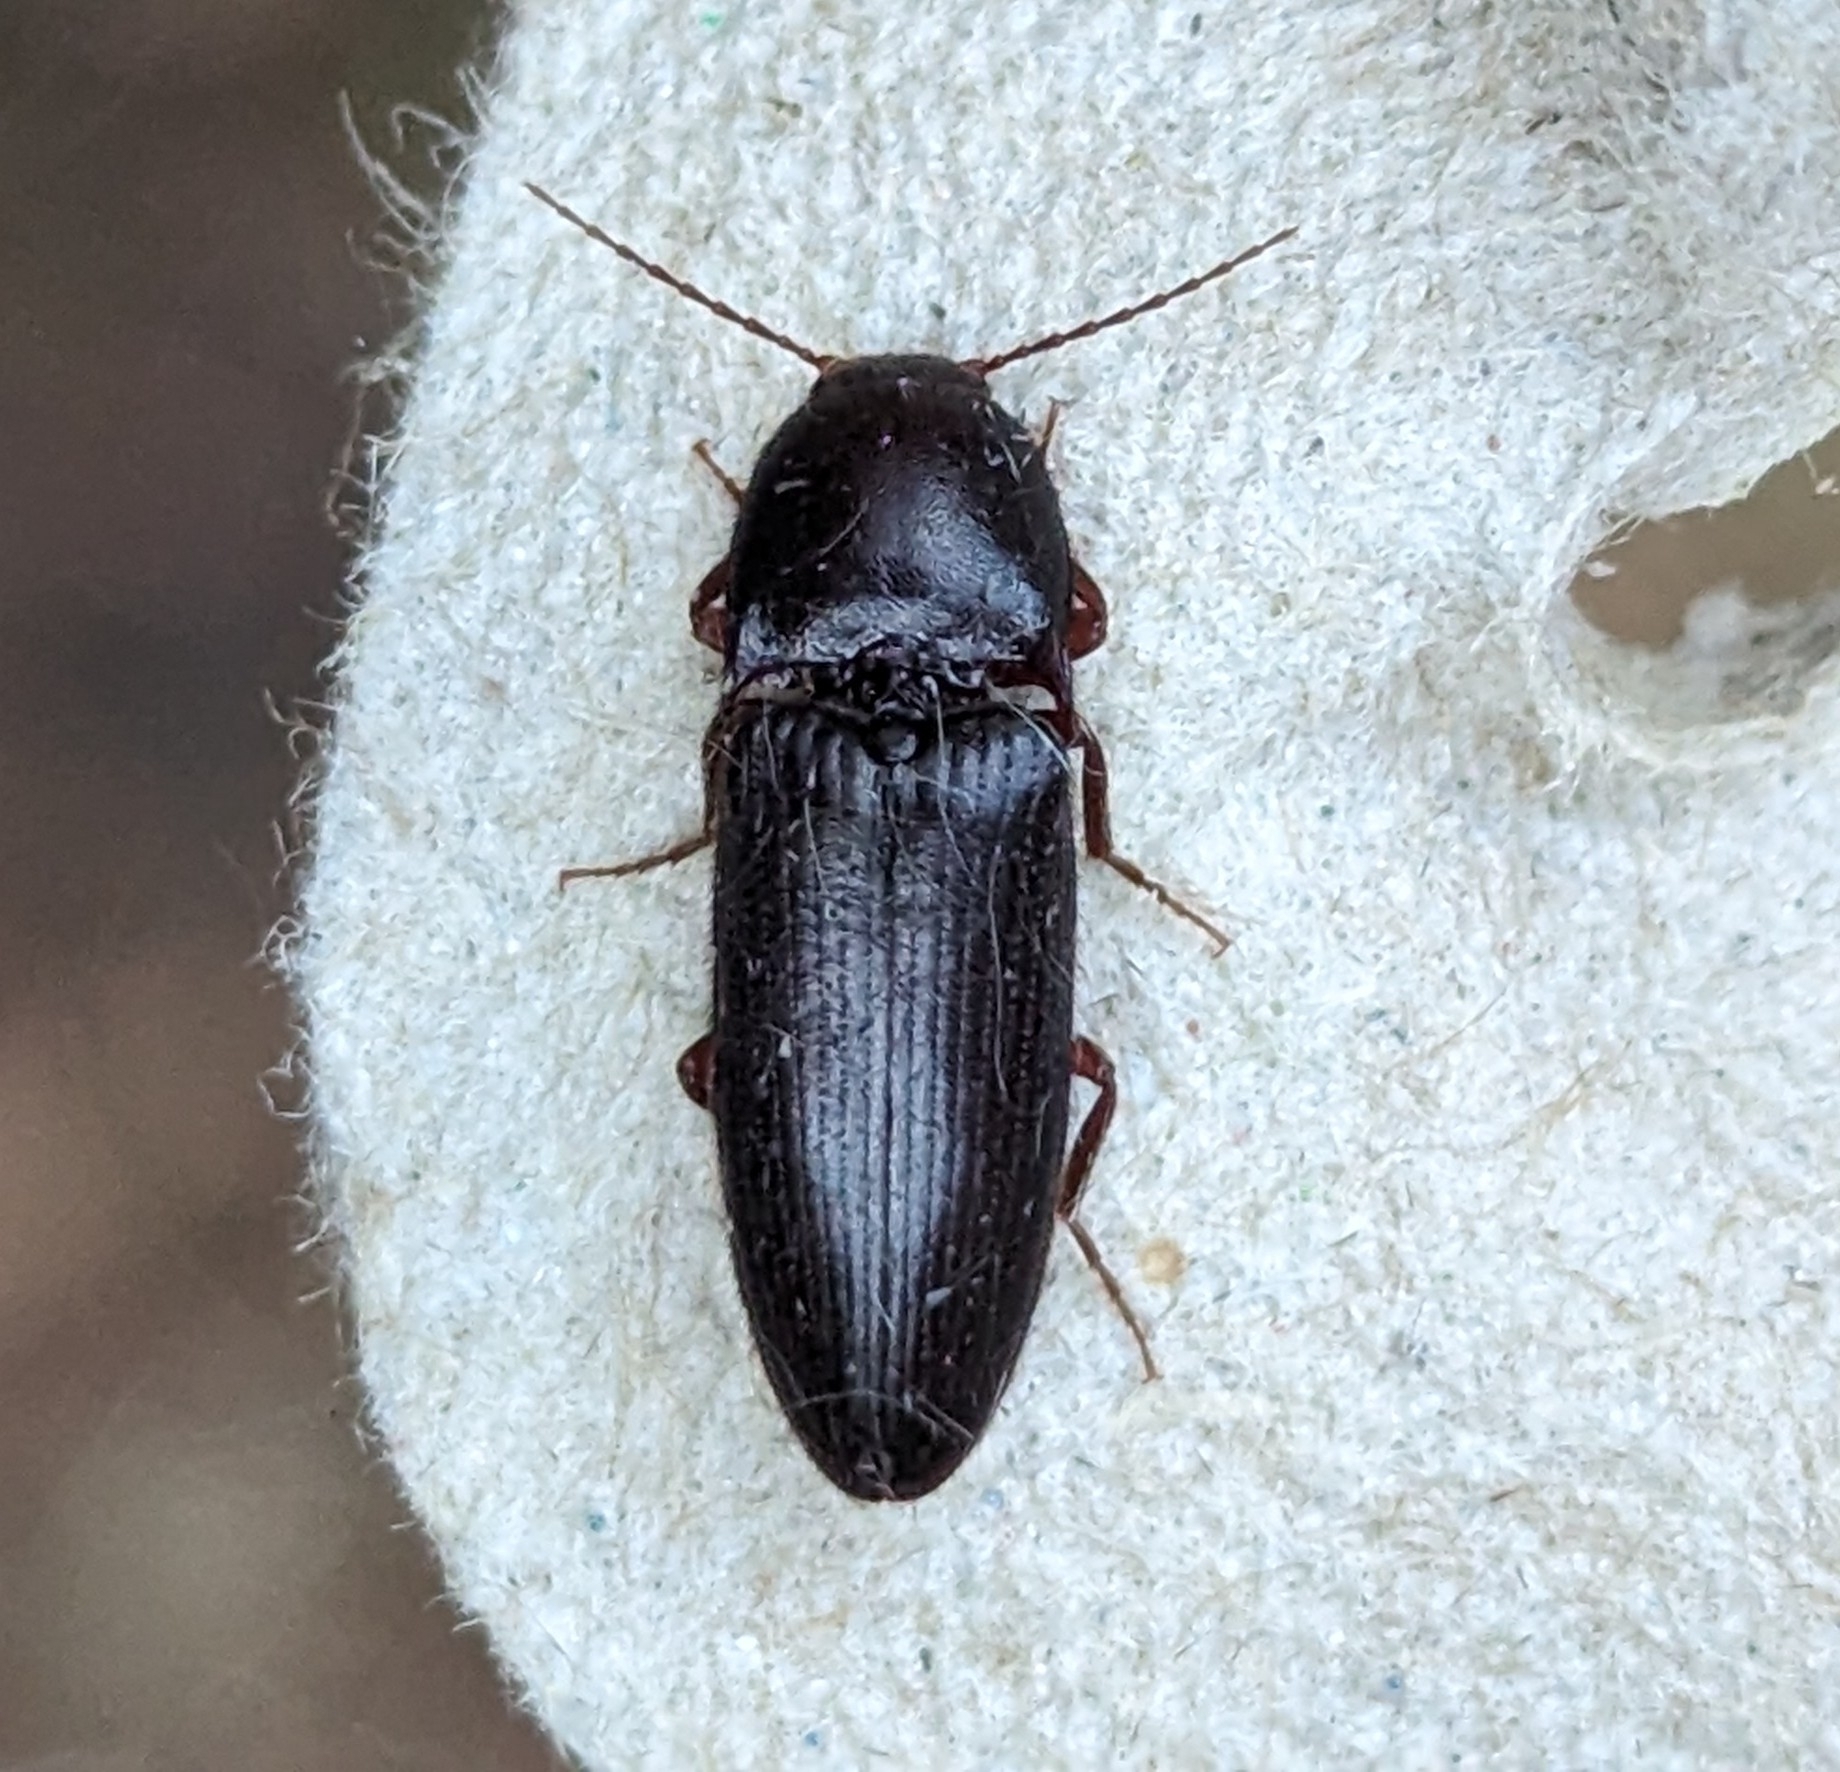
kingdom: Animalia
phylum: Arthropoda
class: Insecta
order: Coleoptera
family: Elateridae
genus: Ampedus
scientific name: Ampedus rhodopus
